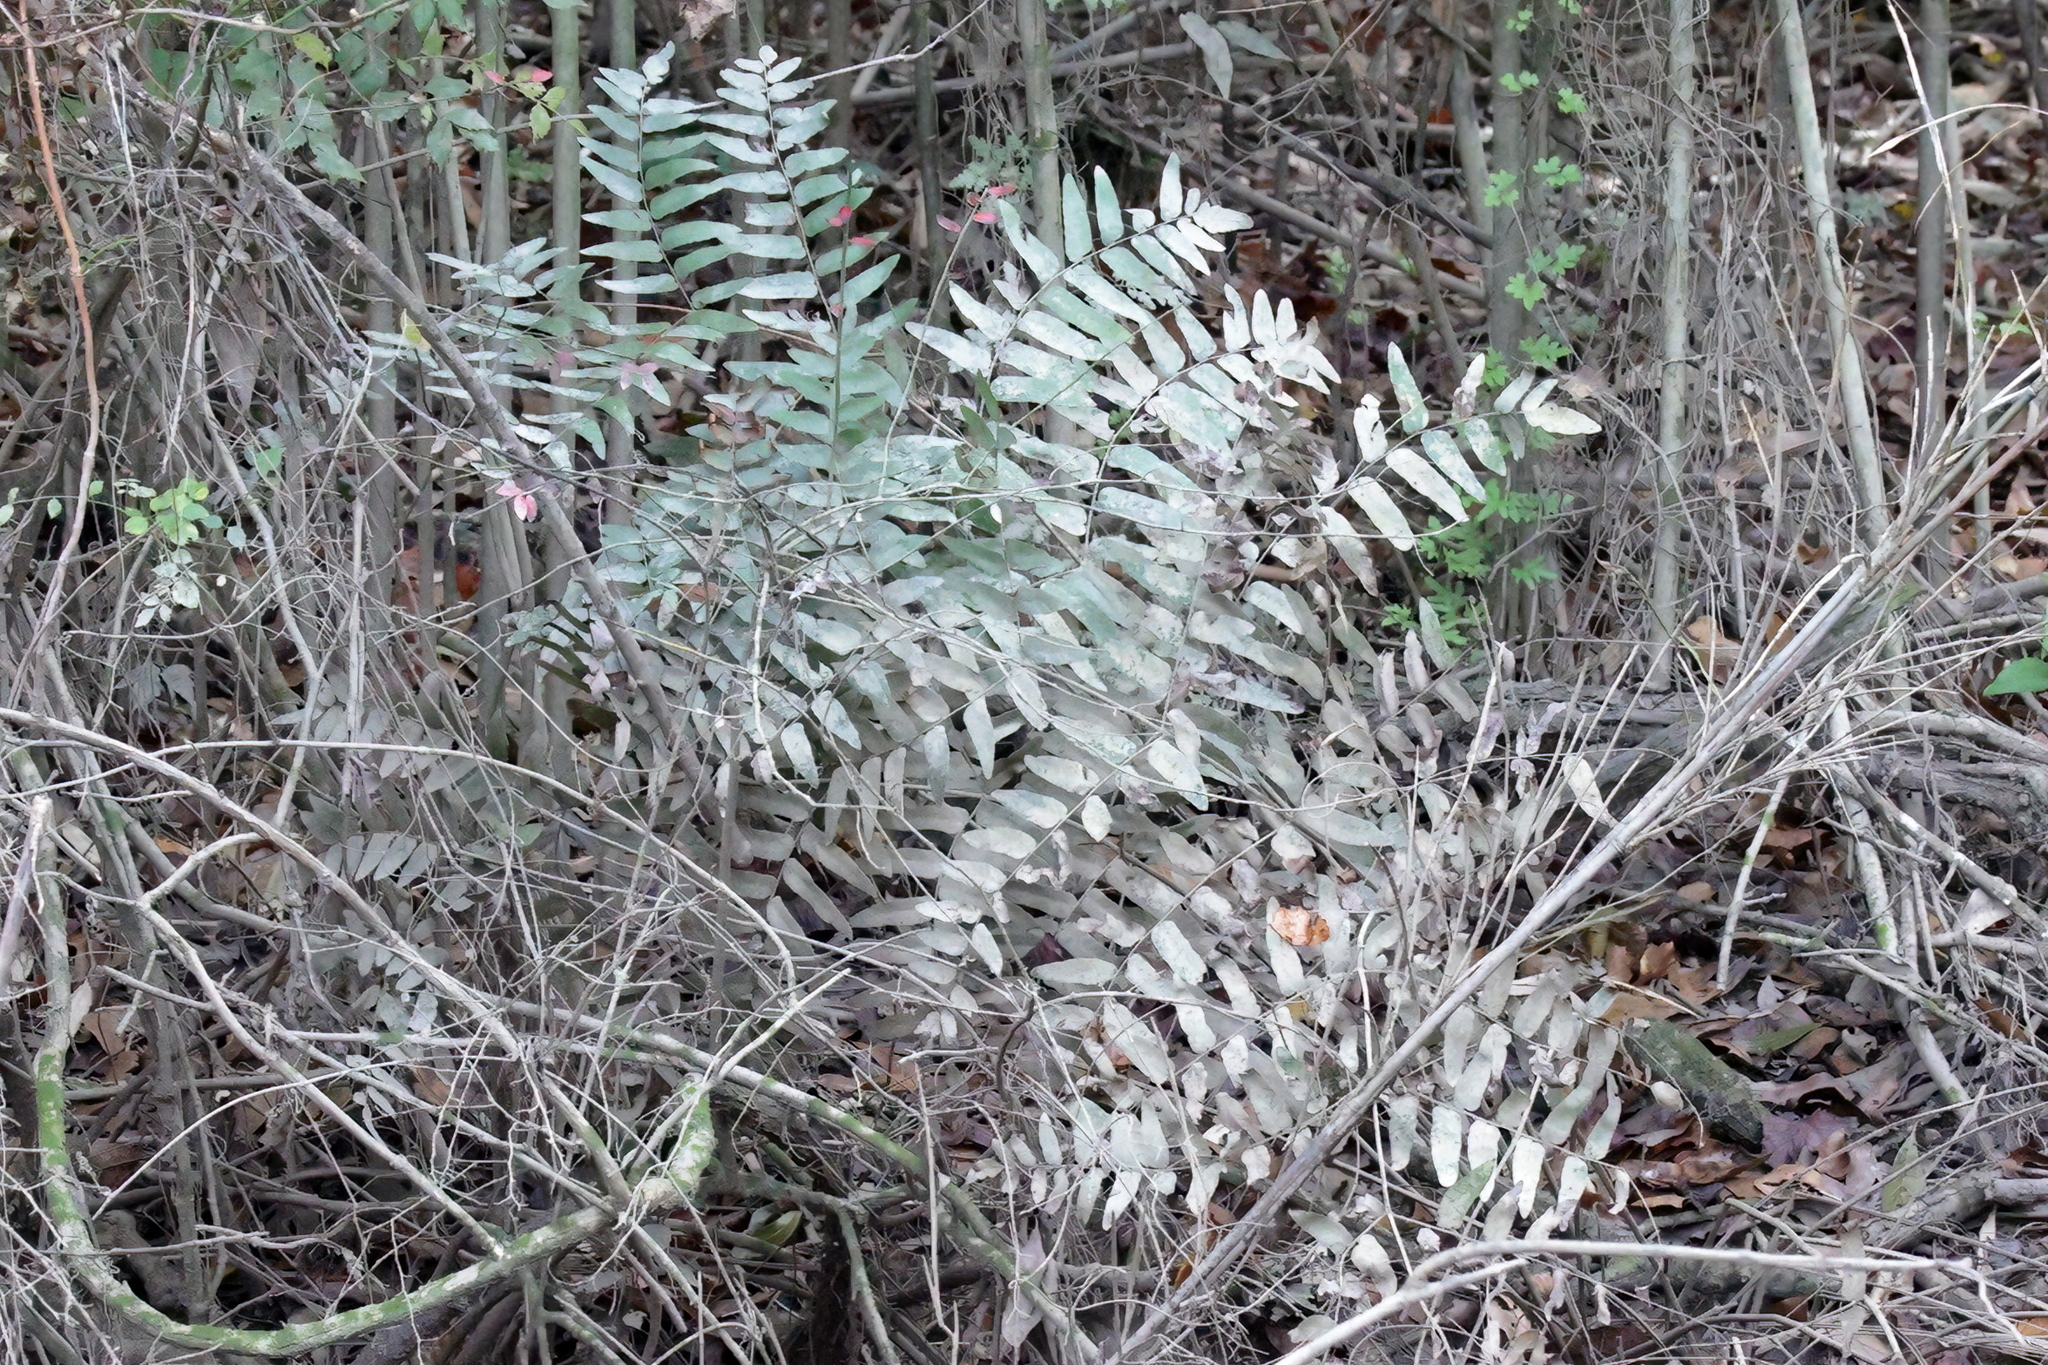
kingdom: Plantae
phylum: Tracheophyta
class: Polypodiopsida
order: Osmundales
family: Osmundaceae
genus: Osmunda
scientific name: Osmunda spectabilis
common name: American royal fern
